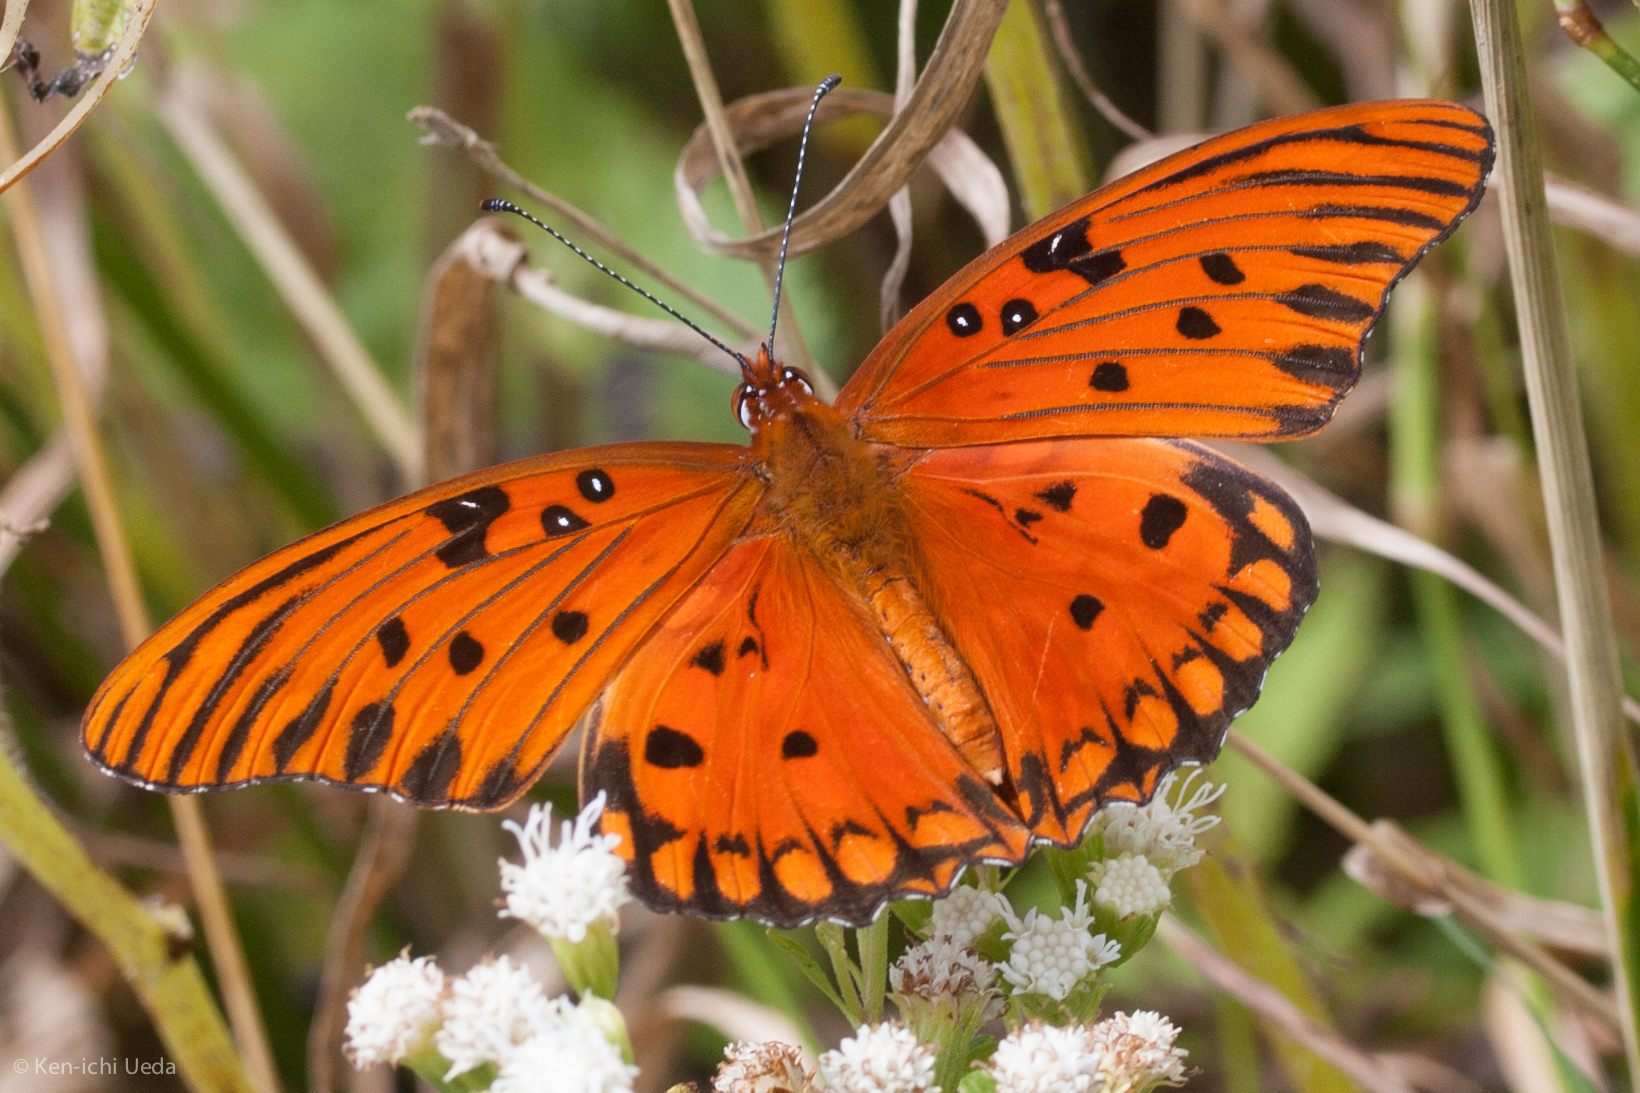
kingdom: Animalia
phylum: Arthropoda
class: Insecta
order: Lepidoptera
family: Nymphalidae
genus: Dione
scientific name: Dione vanillae
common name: Gulf fritillary
